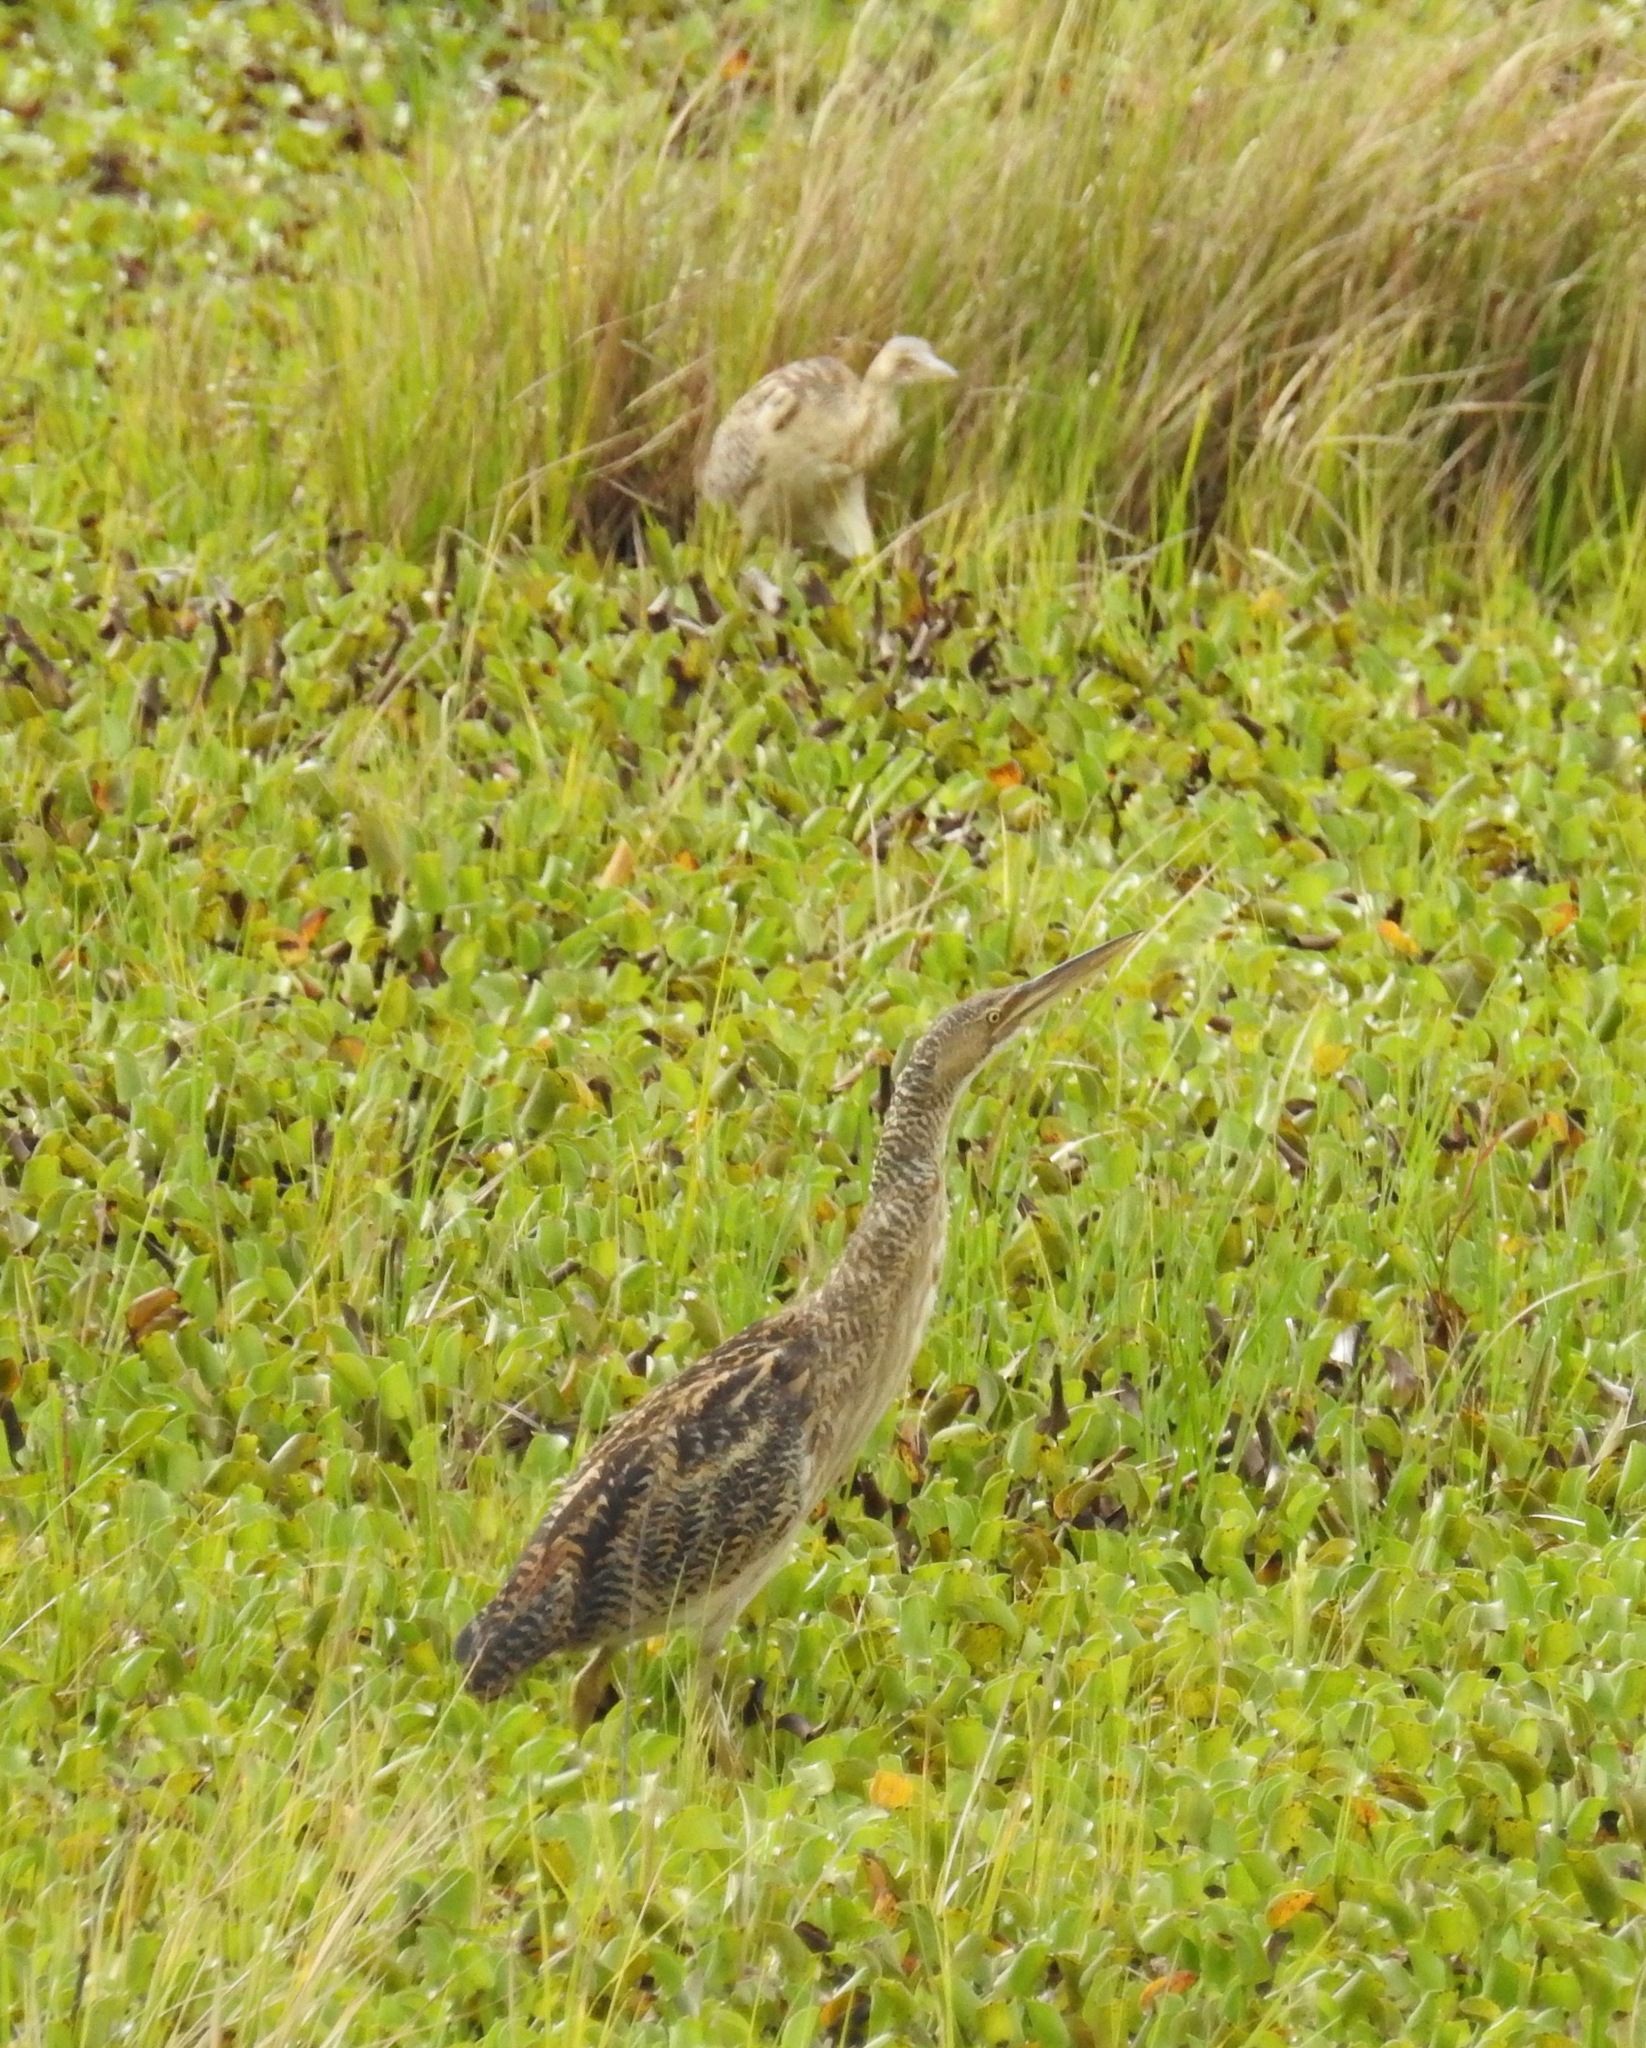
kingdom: Animalia
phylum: Chordata
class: Aves
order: Pelecaniformes
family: Ardeidae
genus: Botaurus
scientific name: Botaurus pinnatus
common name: Pinnated bittern
